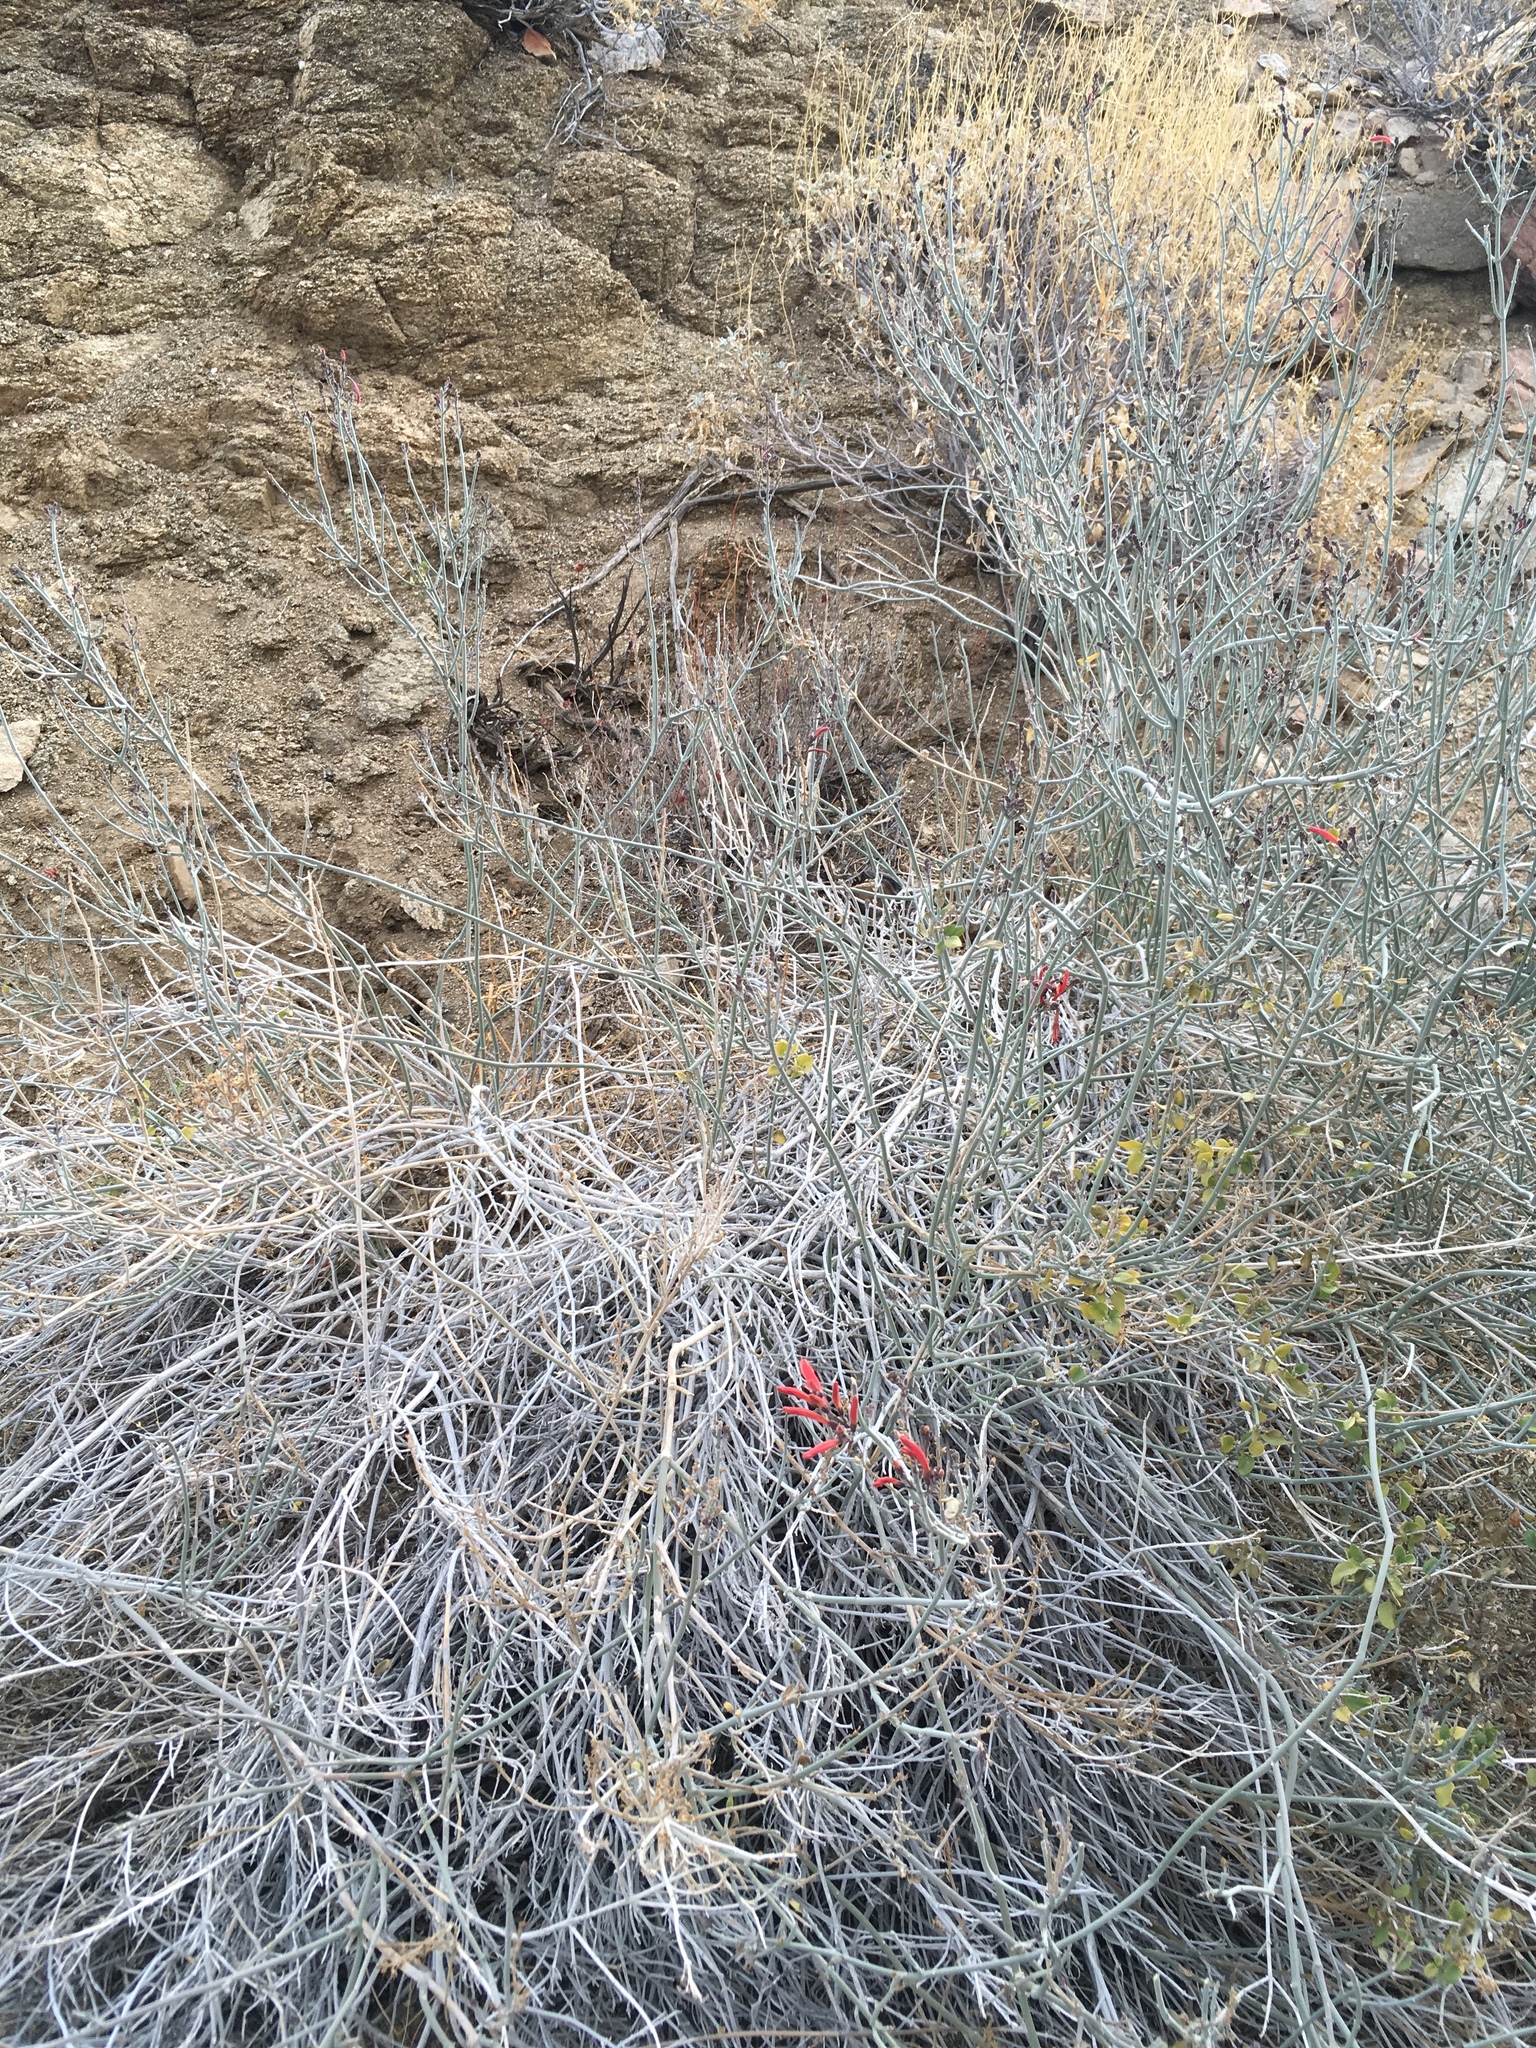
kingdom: Plantae
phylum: Tracheophyta
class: Magnoliopsida
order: Lamiales
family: Acanthaceae
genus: Justicia
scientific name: Justicia californica
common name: Chuparosa-honeysuckle
